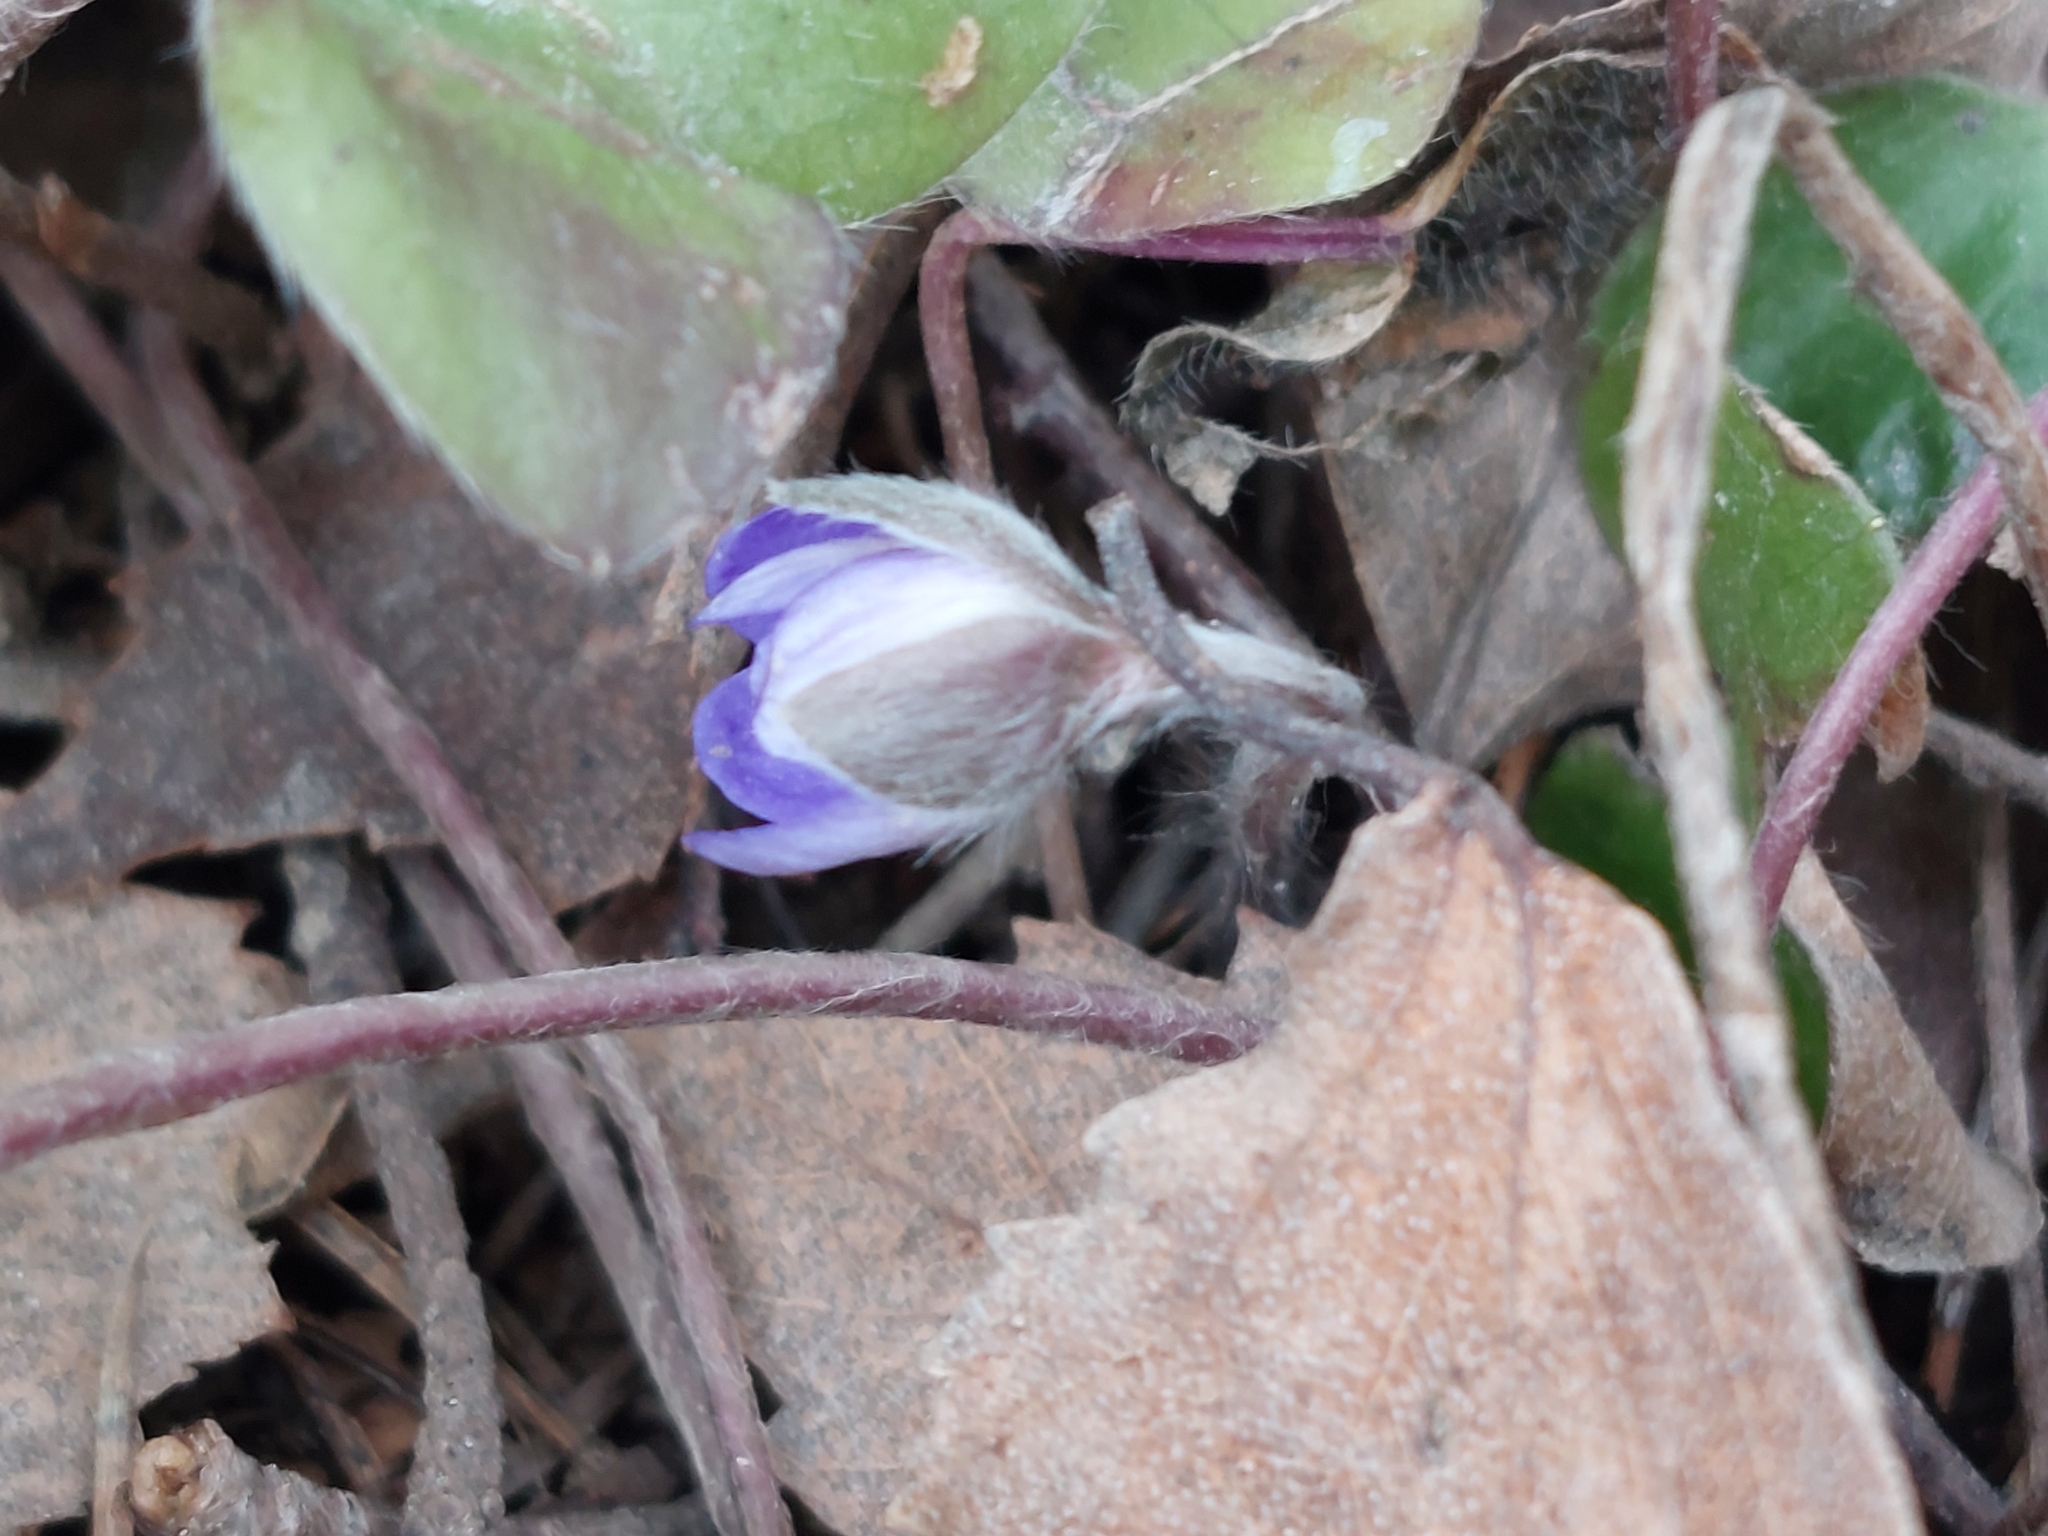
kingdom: Plantae
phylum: Tracheophyta
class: Magnoliopsida
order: Ranunculales
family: Ranunculaceae
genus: Hepatica
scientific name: Hepatica nobilis
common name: Liverleaf
